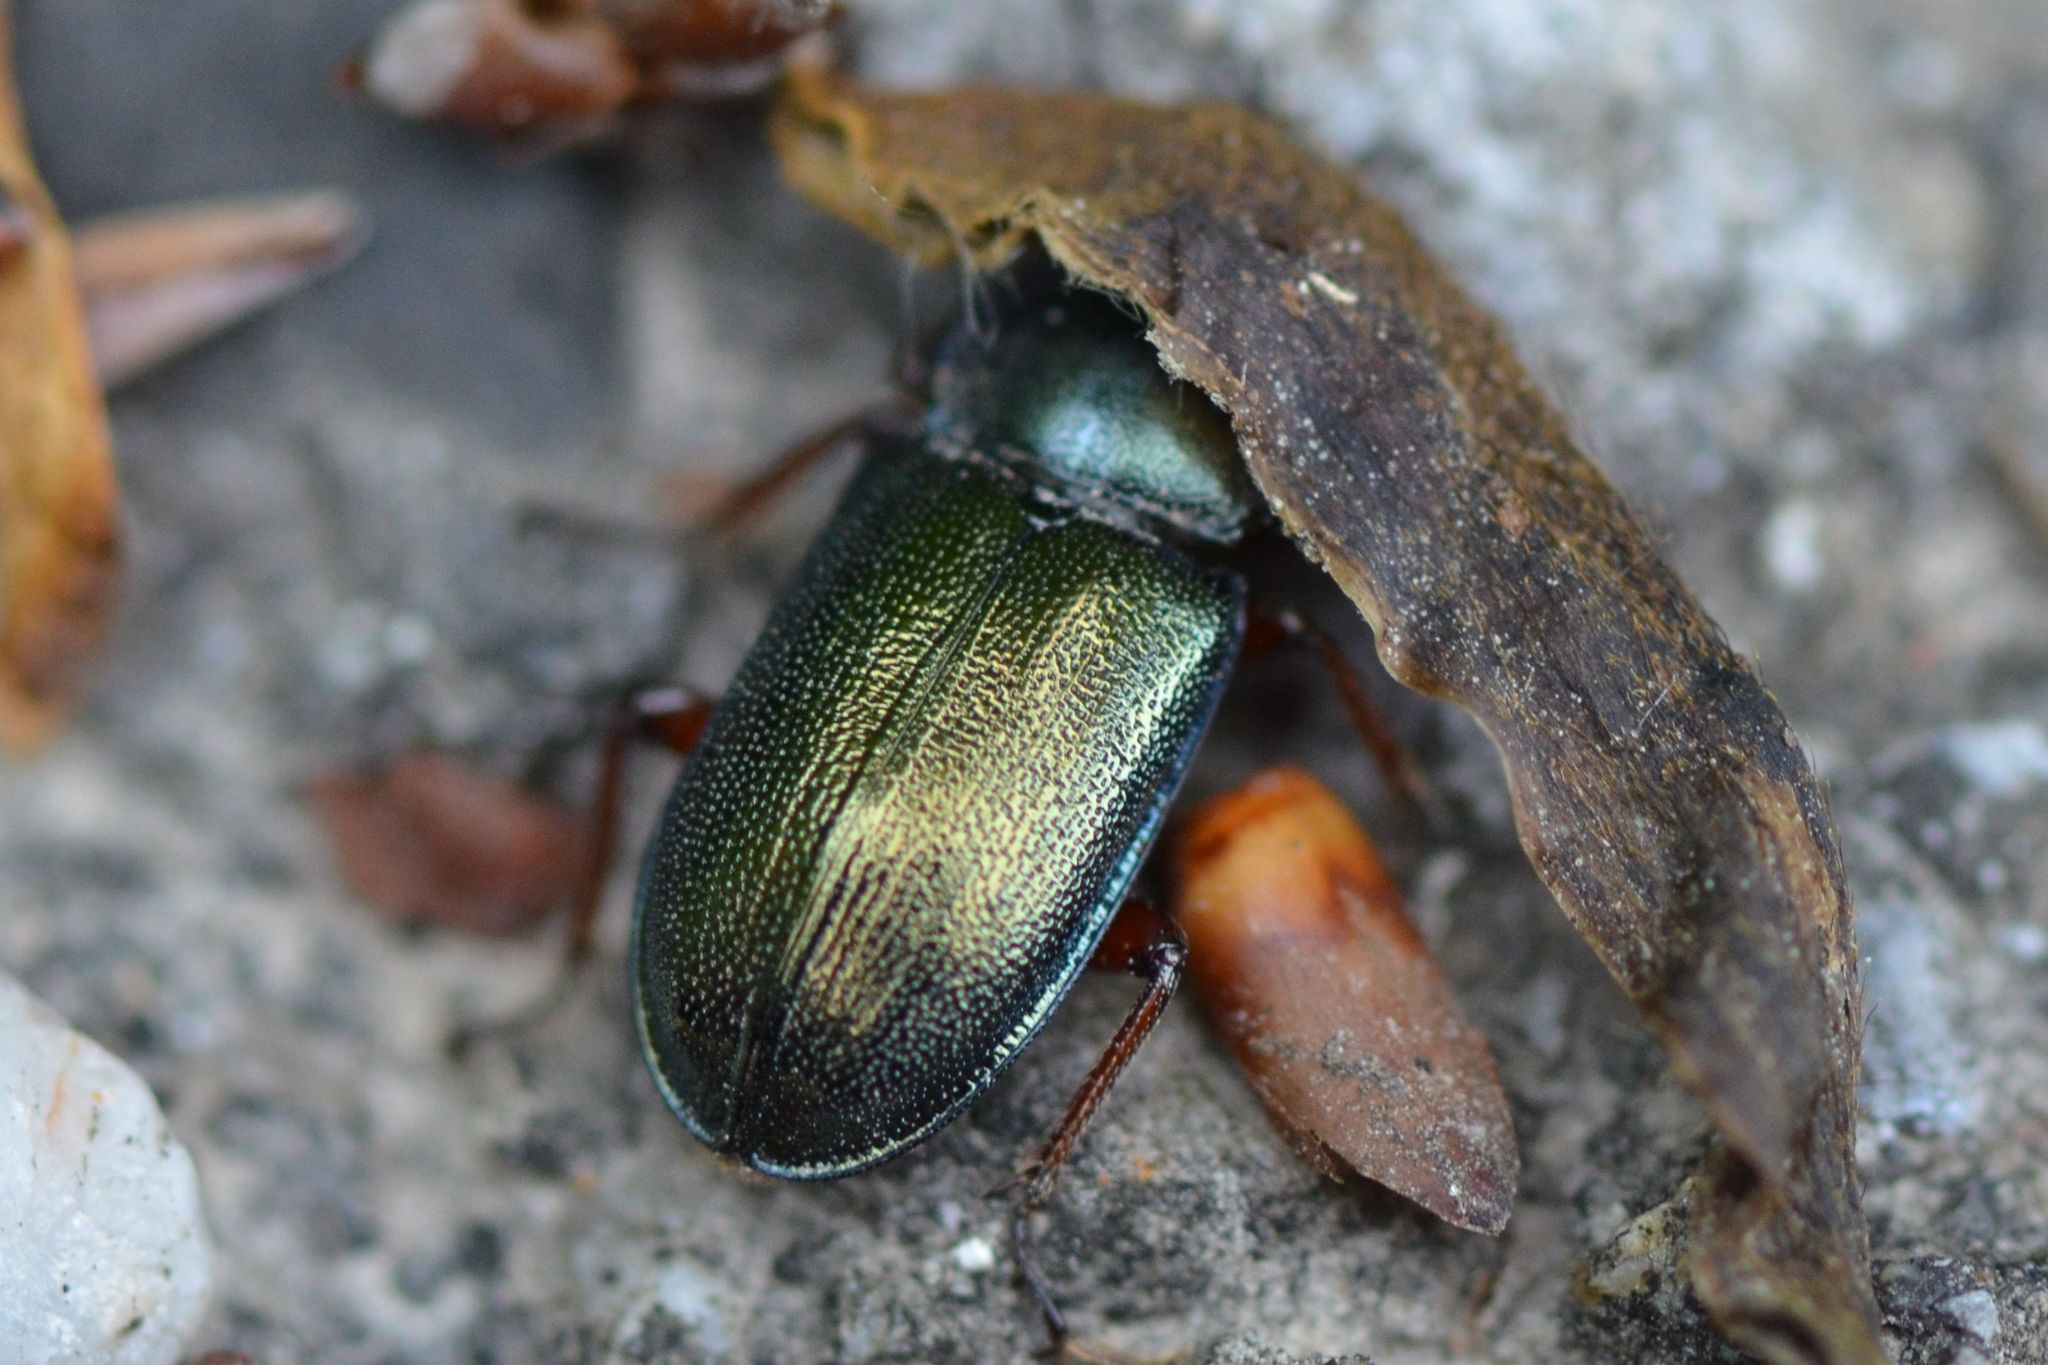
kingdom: Animalia
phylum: Arthropoda
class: Insecta
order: Coleoptera
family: Lucanidae
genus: Platycerus
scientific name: Platycerus caraboides
